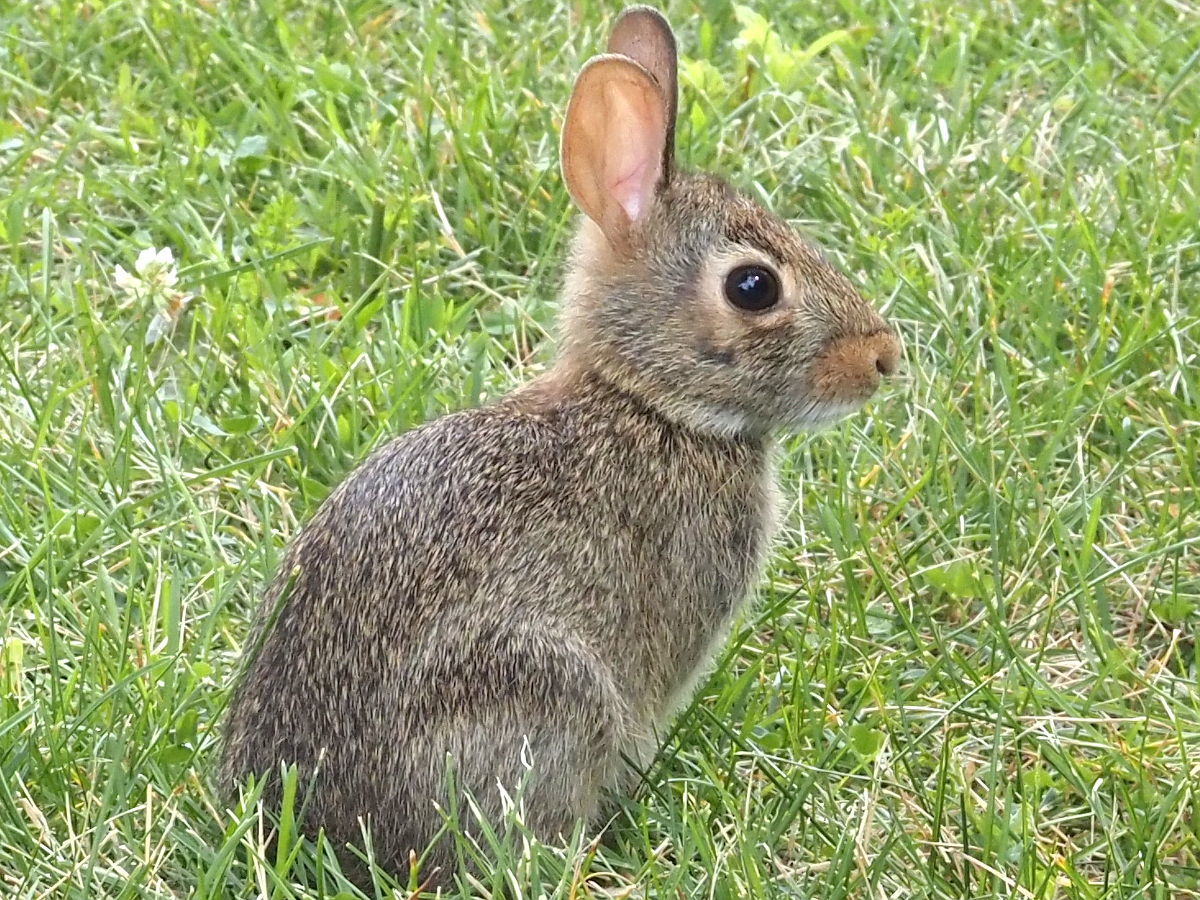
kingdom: Animalia
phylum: Chordata
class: Mammalia
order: Lagomorpha
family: Leporidae
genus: Sylvilagus
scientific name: Sylvilagus floridanus
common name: Eastern cottontail
